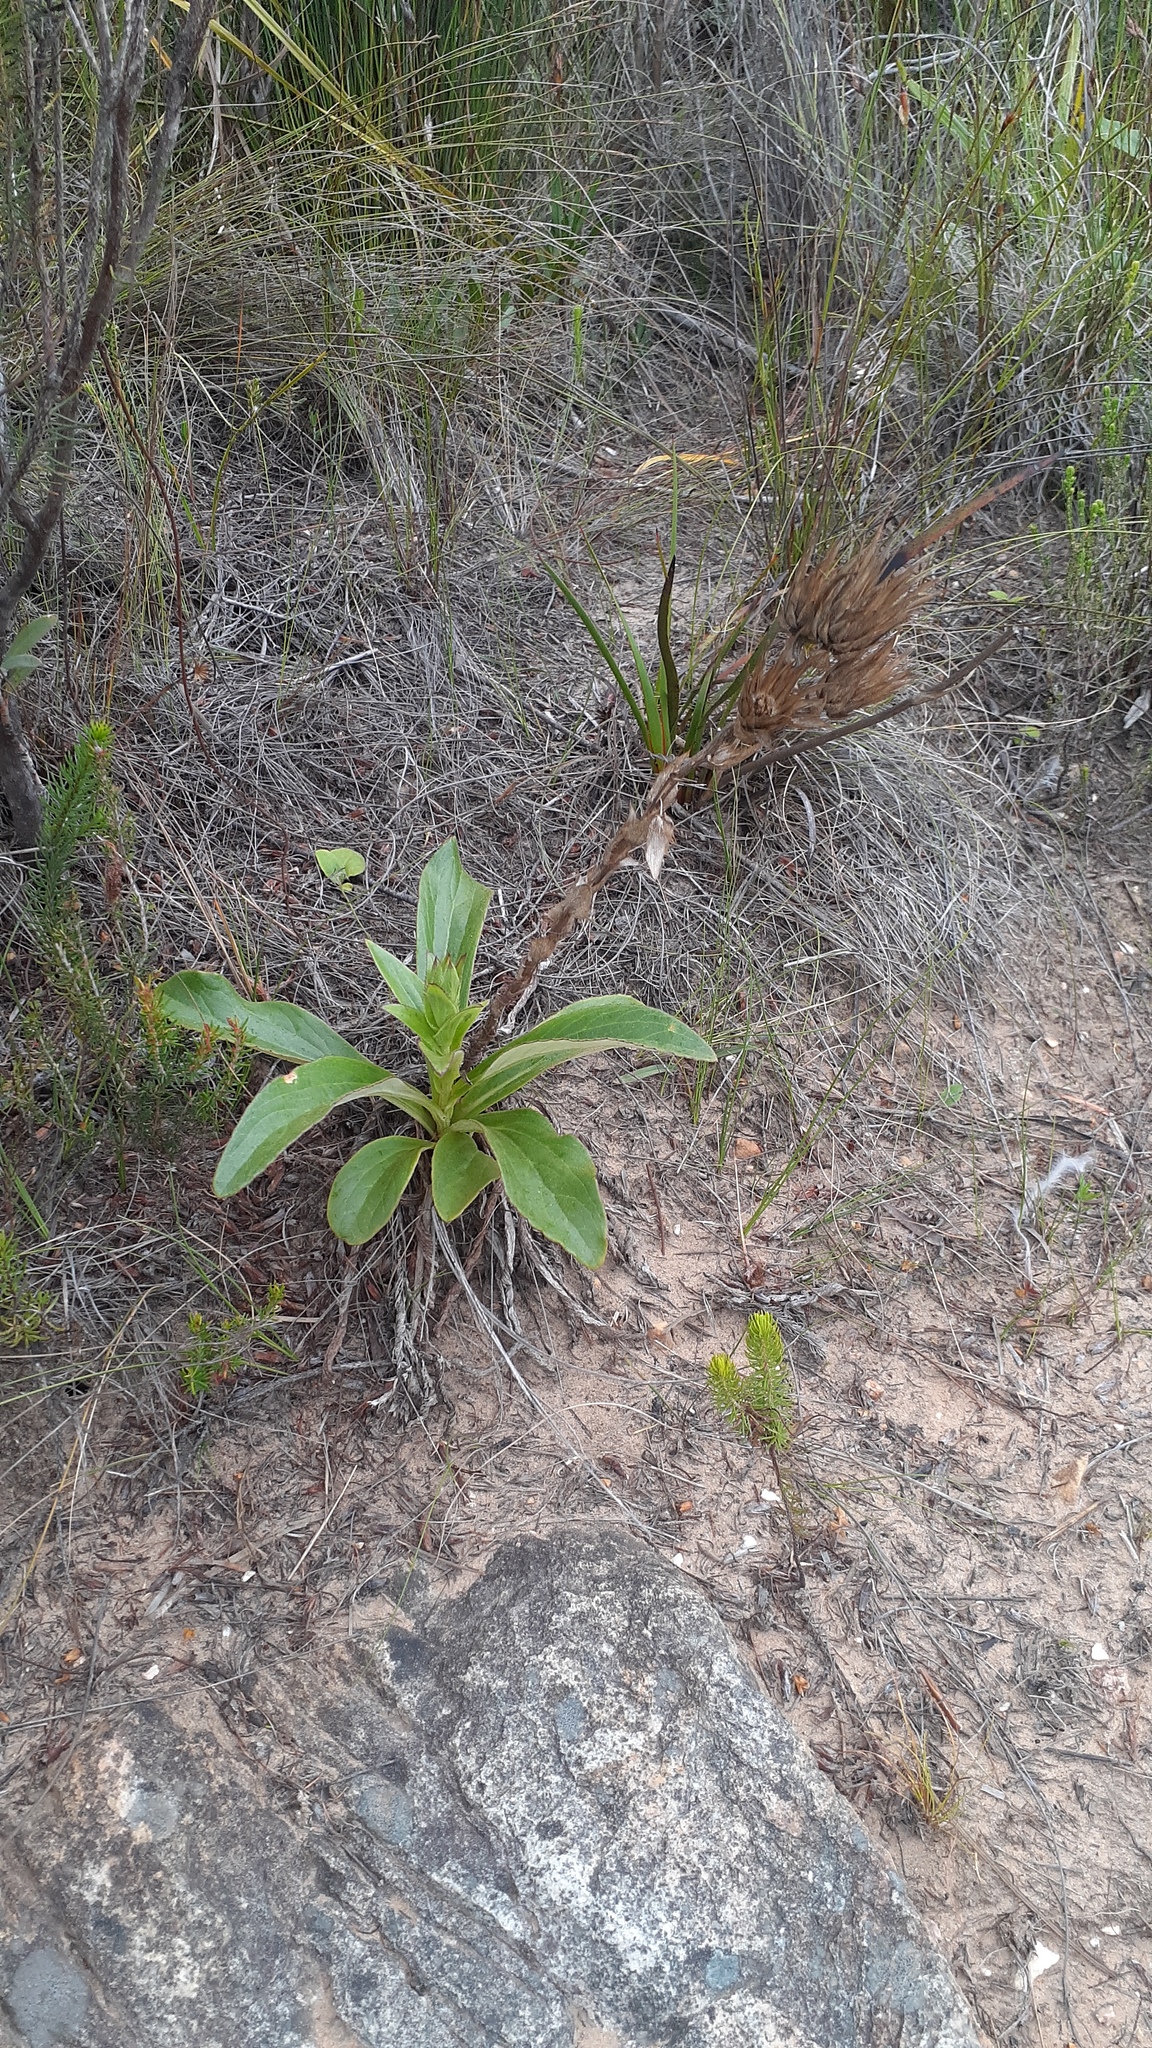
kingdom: Plantae
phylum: Tracheophyta
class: Magnoliopsida
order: Asterales
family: Asteraceae
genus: Berkheya
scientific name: Berkheya herbacea
